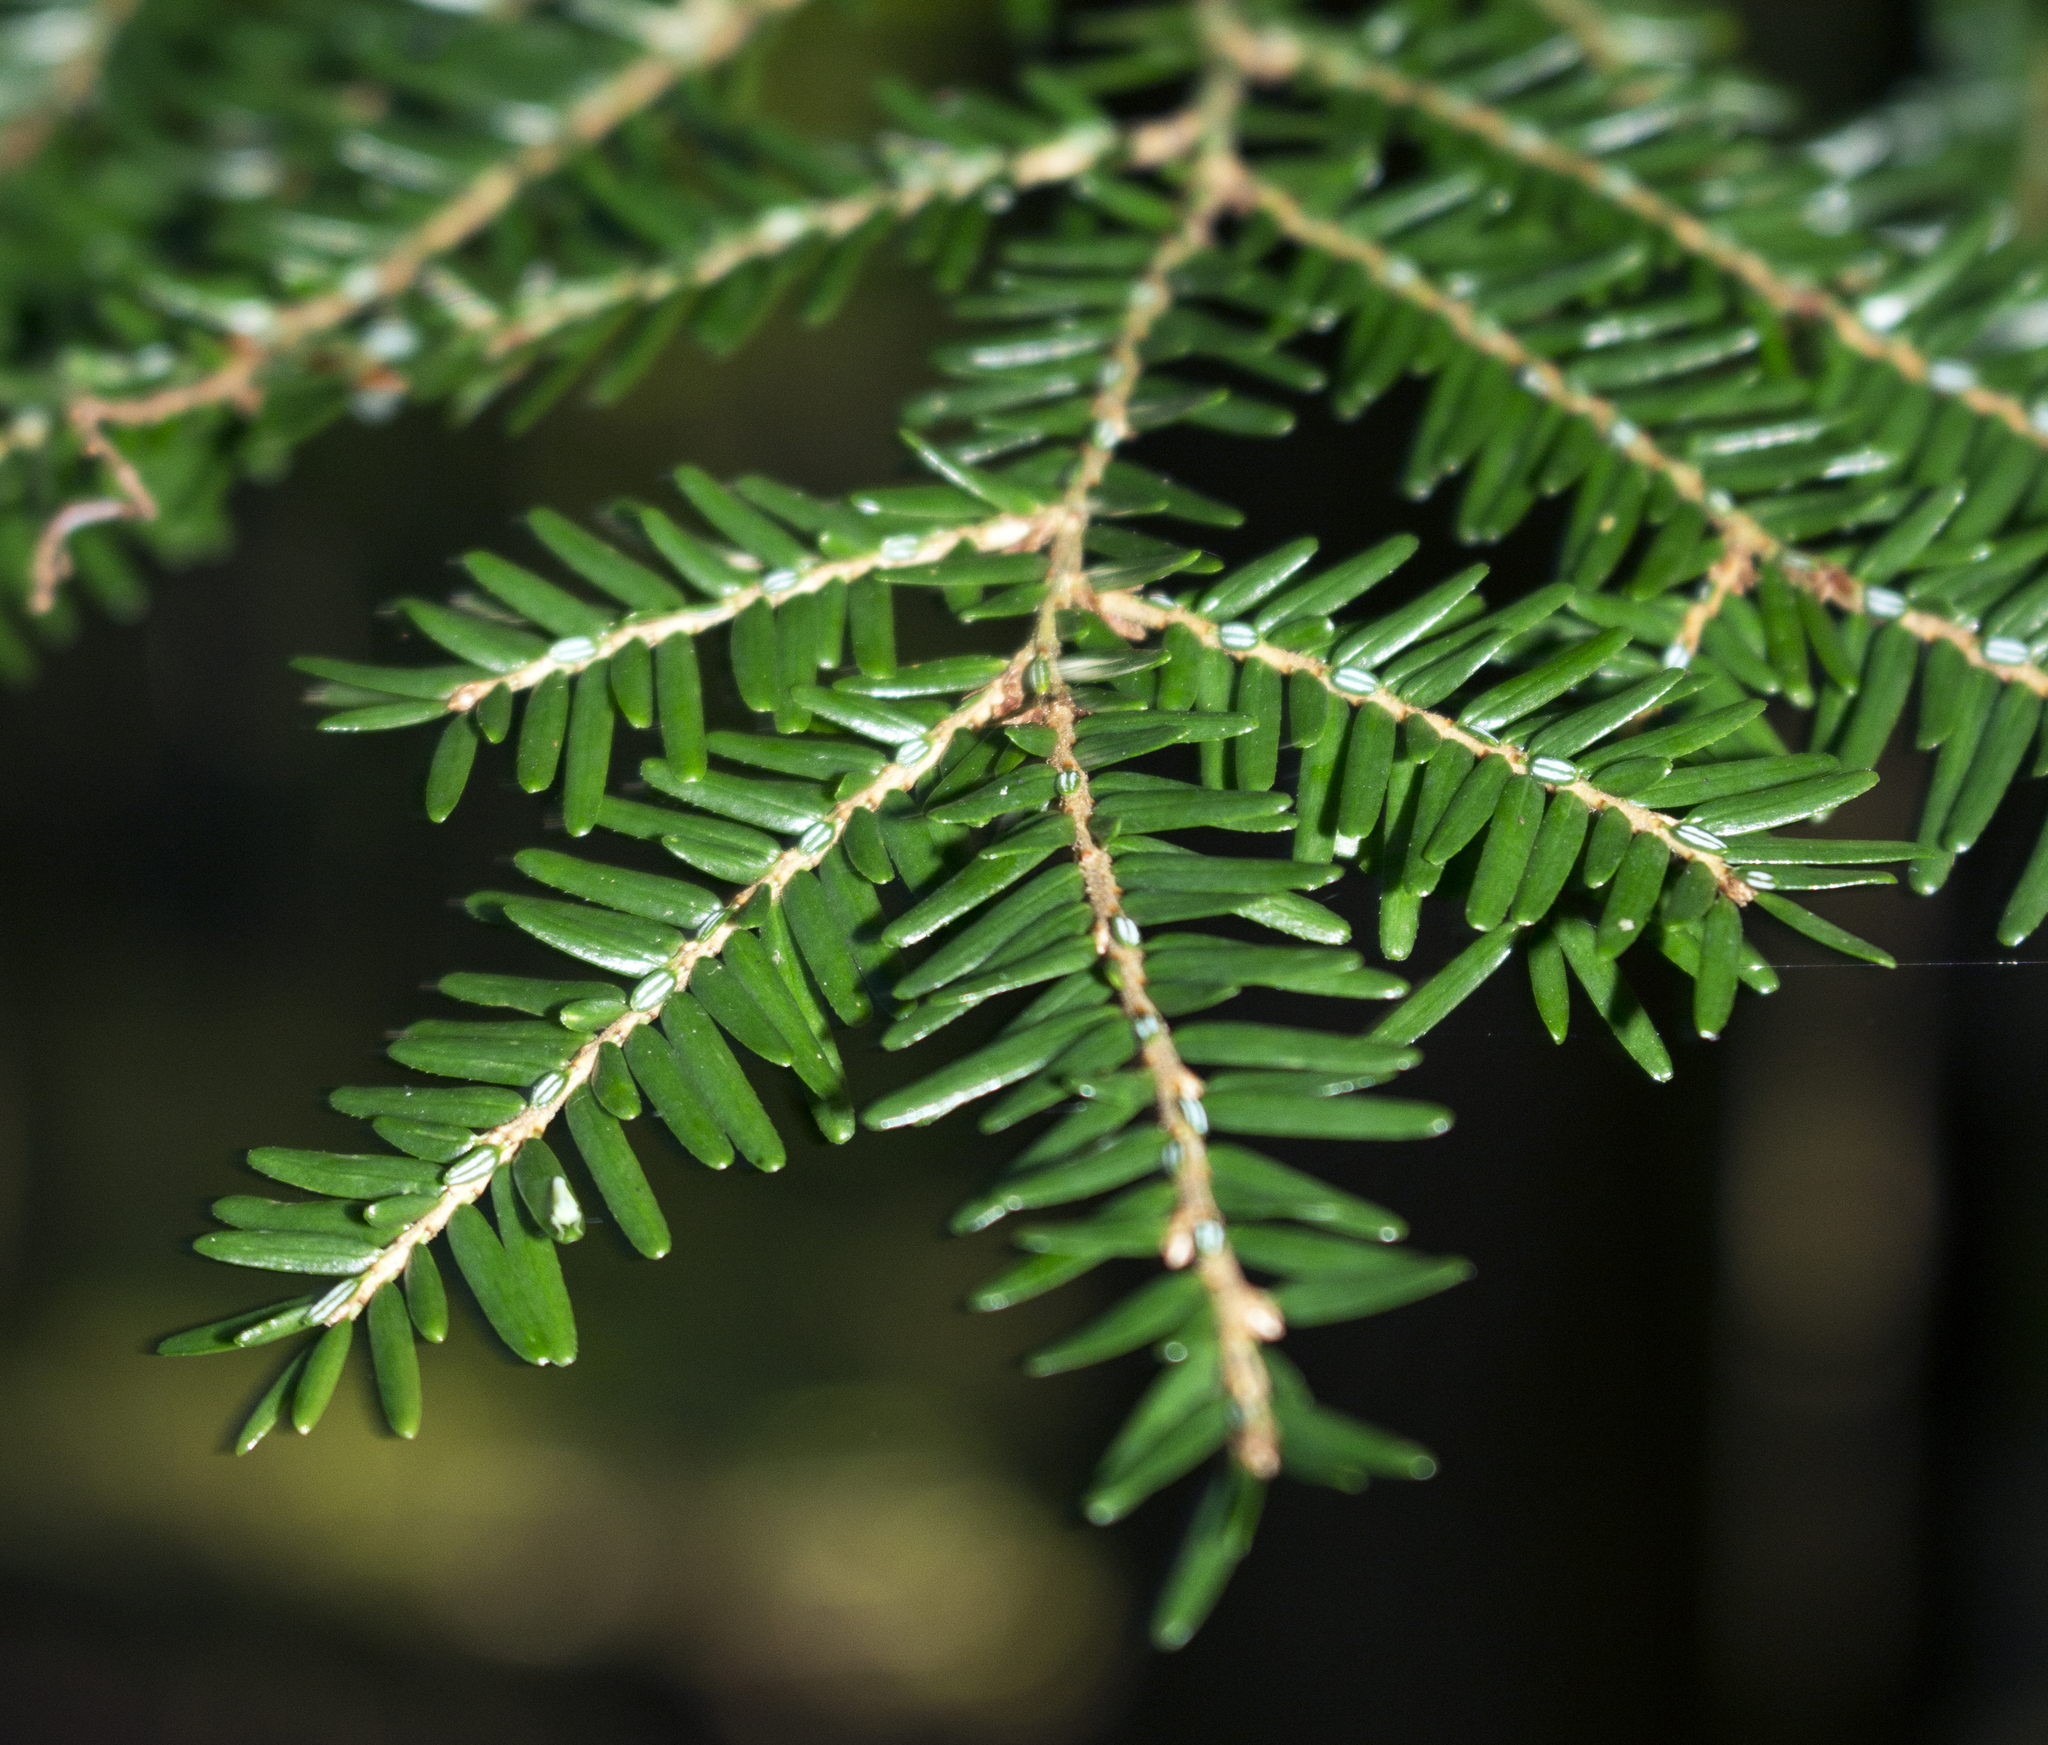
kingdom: Plantae
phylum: Tracheophyta
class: Pinopsida
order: Pinales
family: Pinaceae
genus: Tsuga
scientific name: Tsuga canadensis
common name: Eastern hemlock
